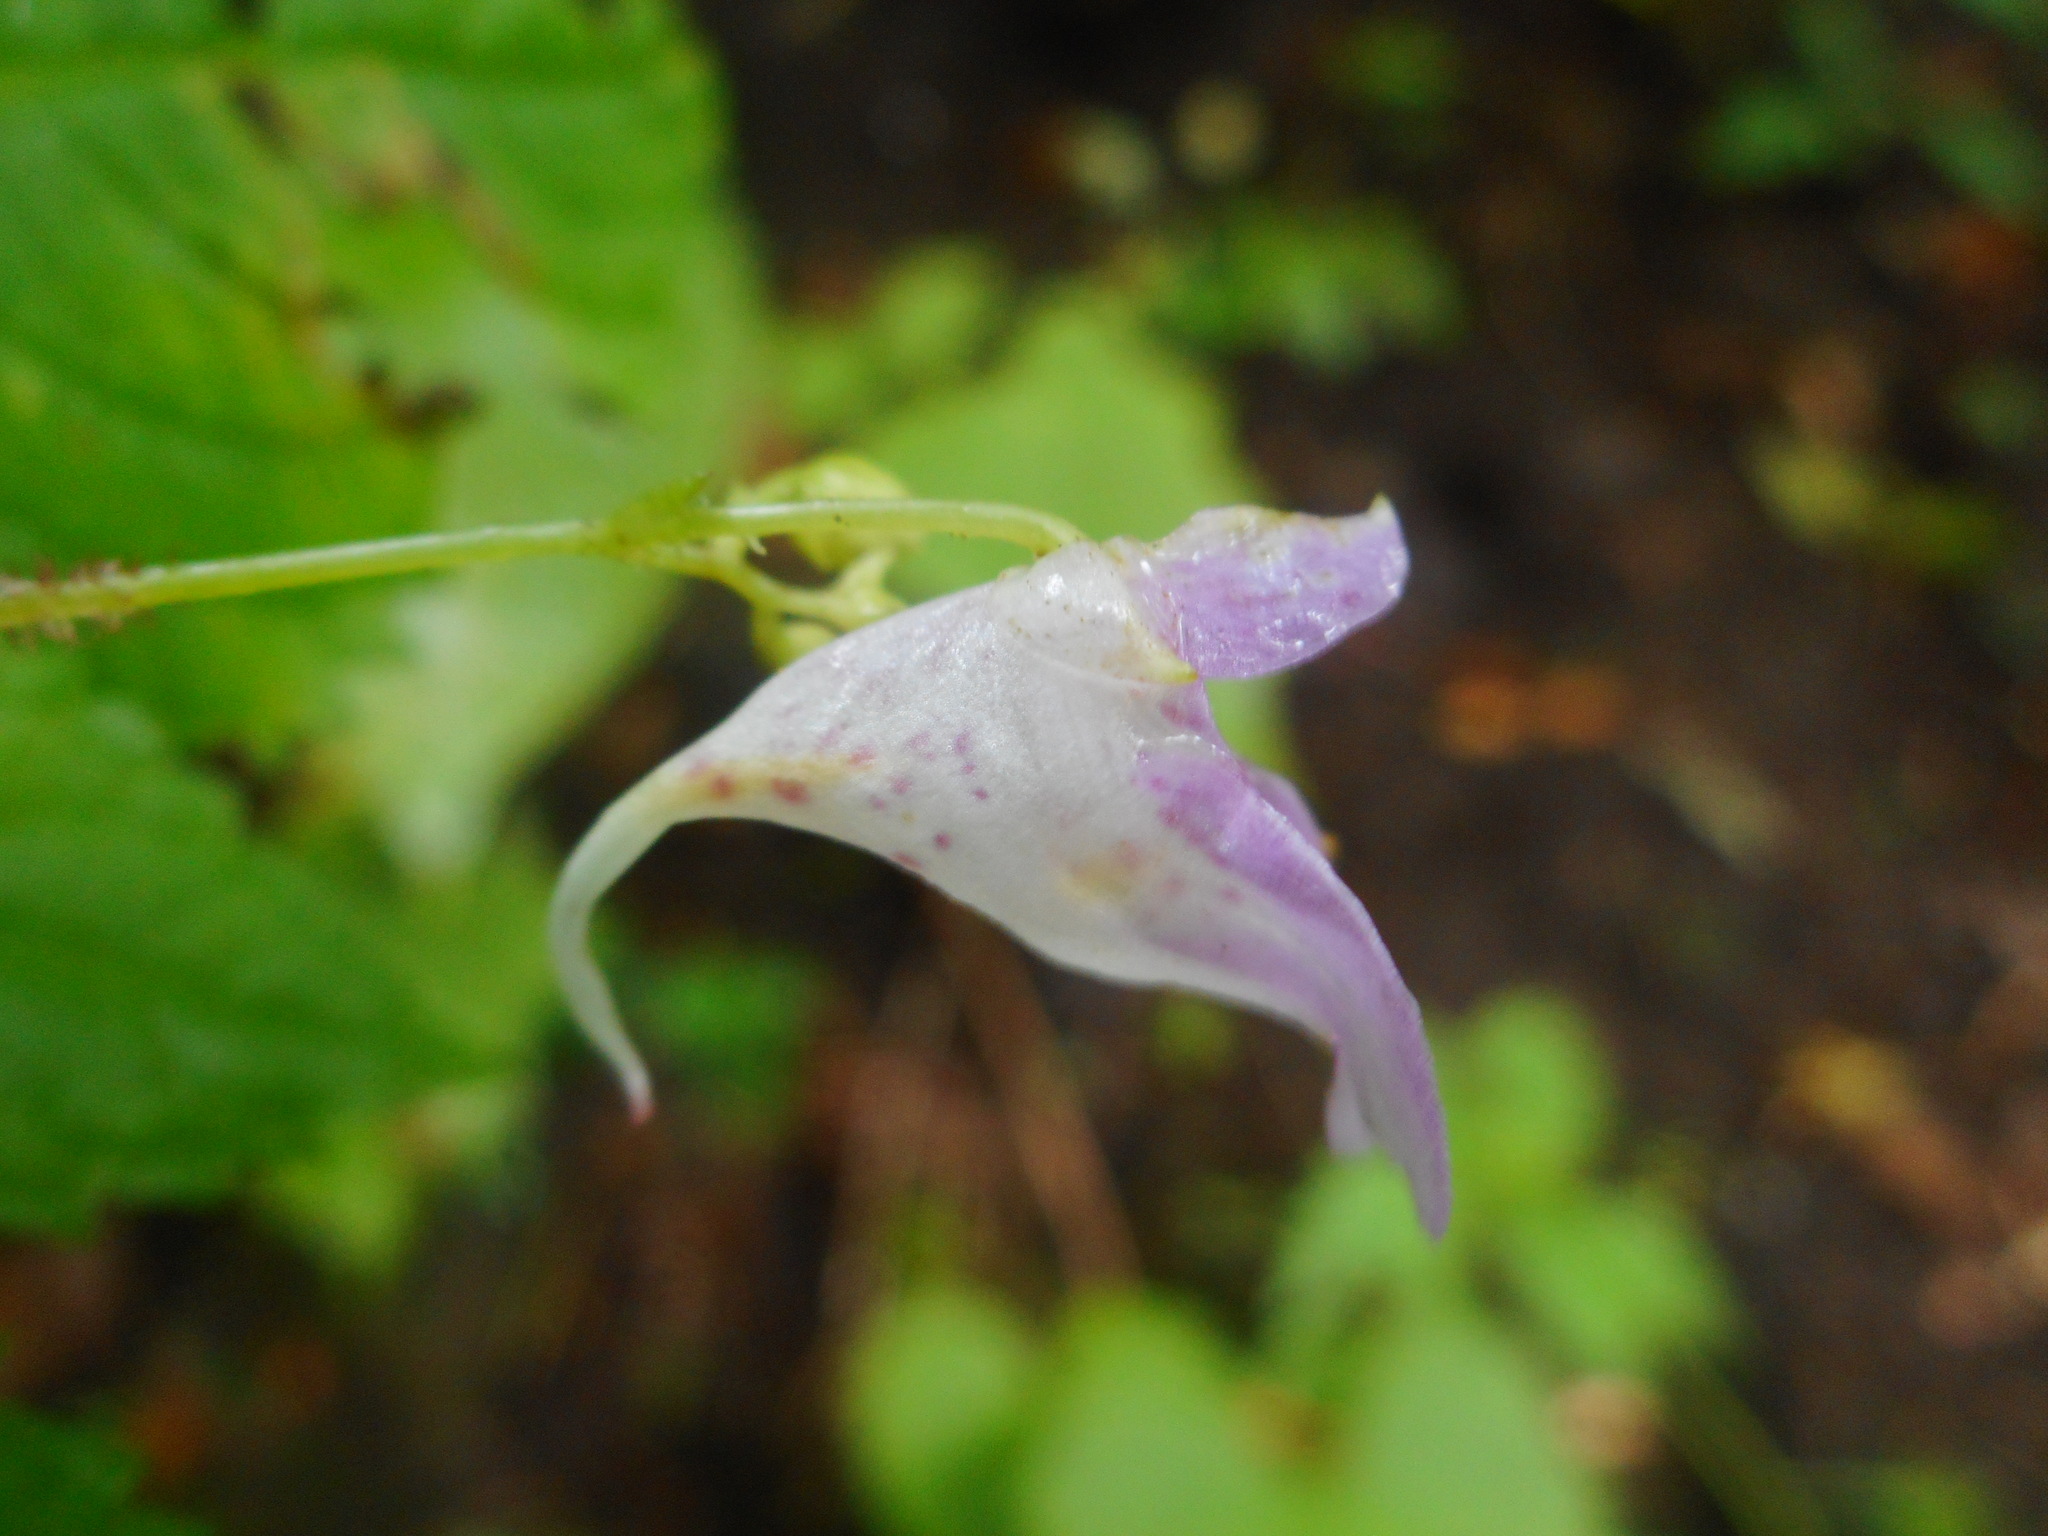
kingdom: Plantae
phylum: Tracheophyta
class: Magnoliopsida
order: Ericales
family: Balsaminaceae
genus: Impatiens
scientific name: Impatiens furcillata
